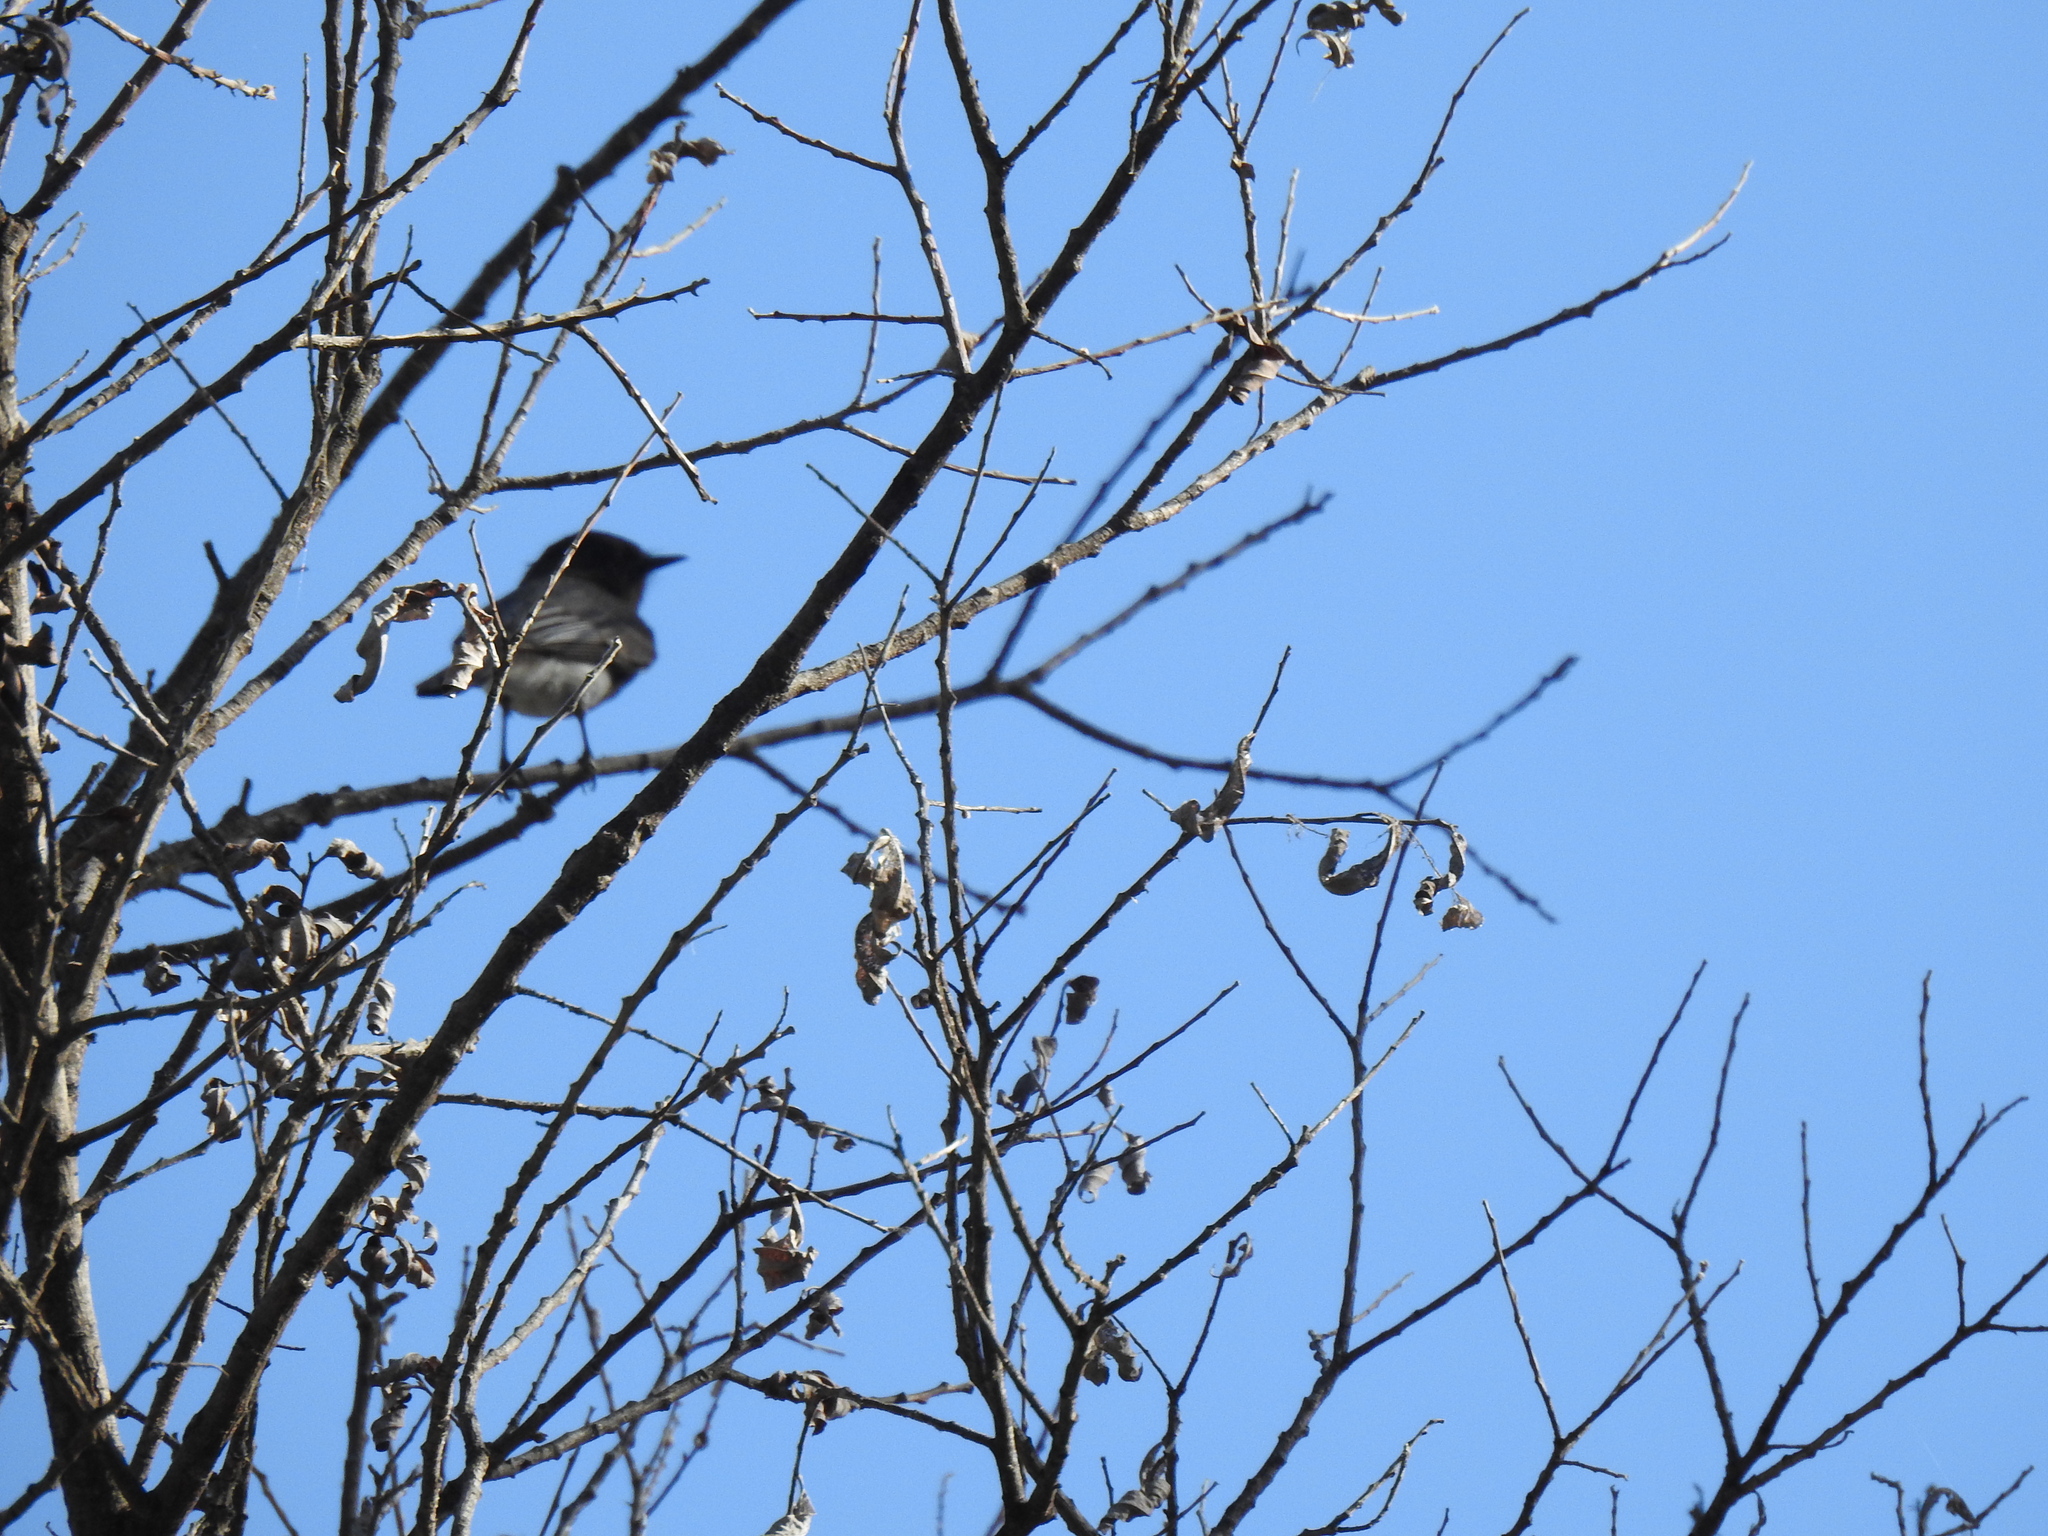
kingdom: Animalia
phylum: Chordata
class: Aves
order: Passeriformes
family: Tyrannidae
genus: Sayornis
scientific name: Sayornis nigricans
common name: Black phoebe
